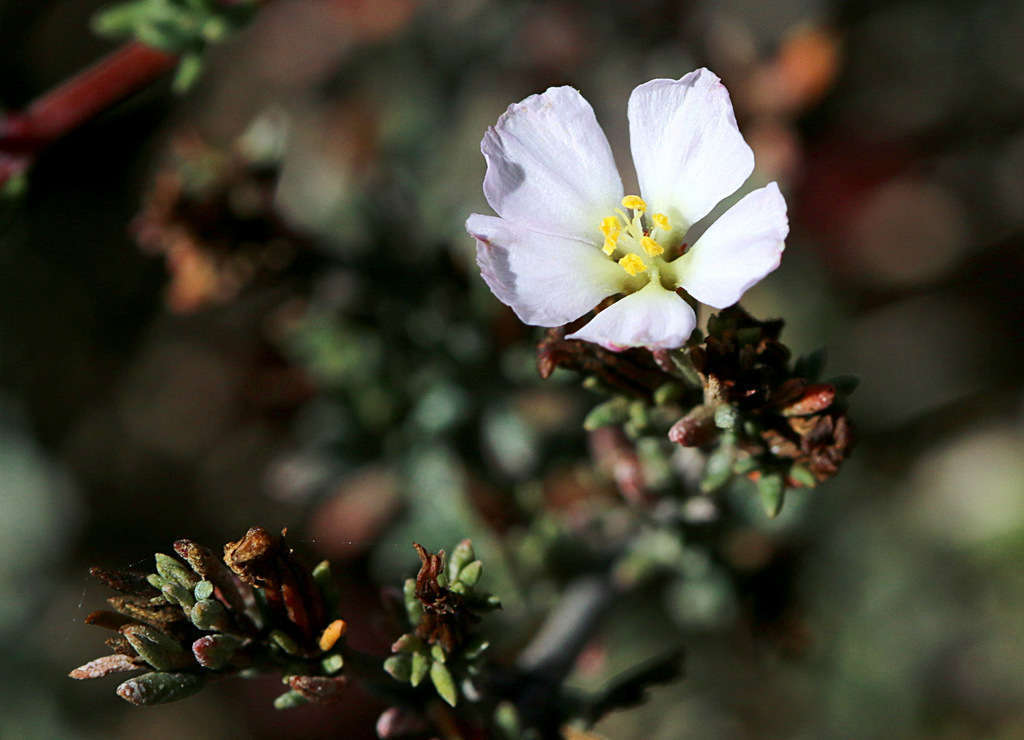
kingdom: Plantae
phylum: Tracheophyta
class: Magnoliopsida
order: Caryophyllales
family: Frankeniaceae
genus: Frankenia
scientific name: Frankenia pauciflora
